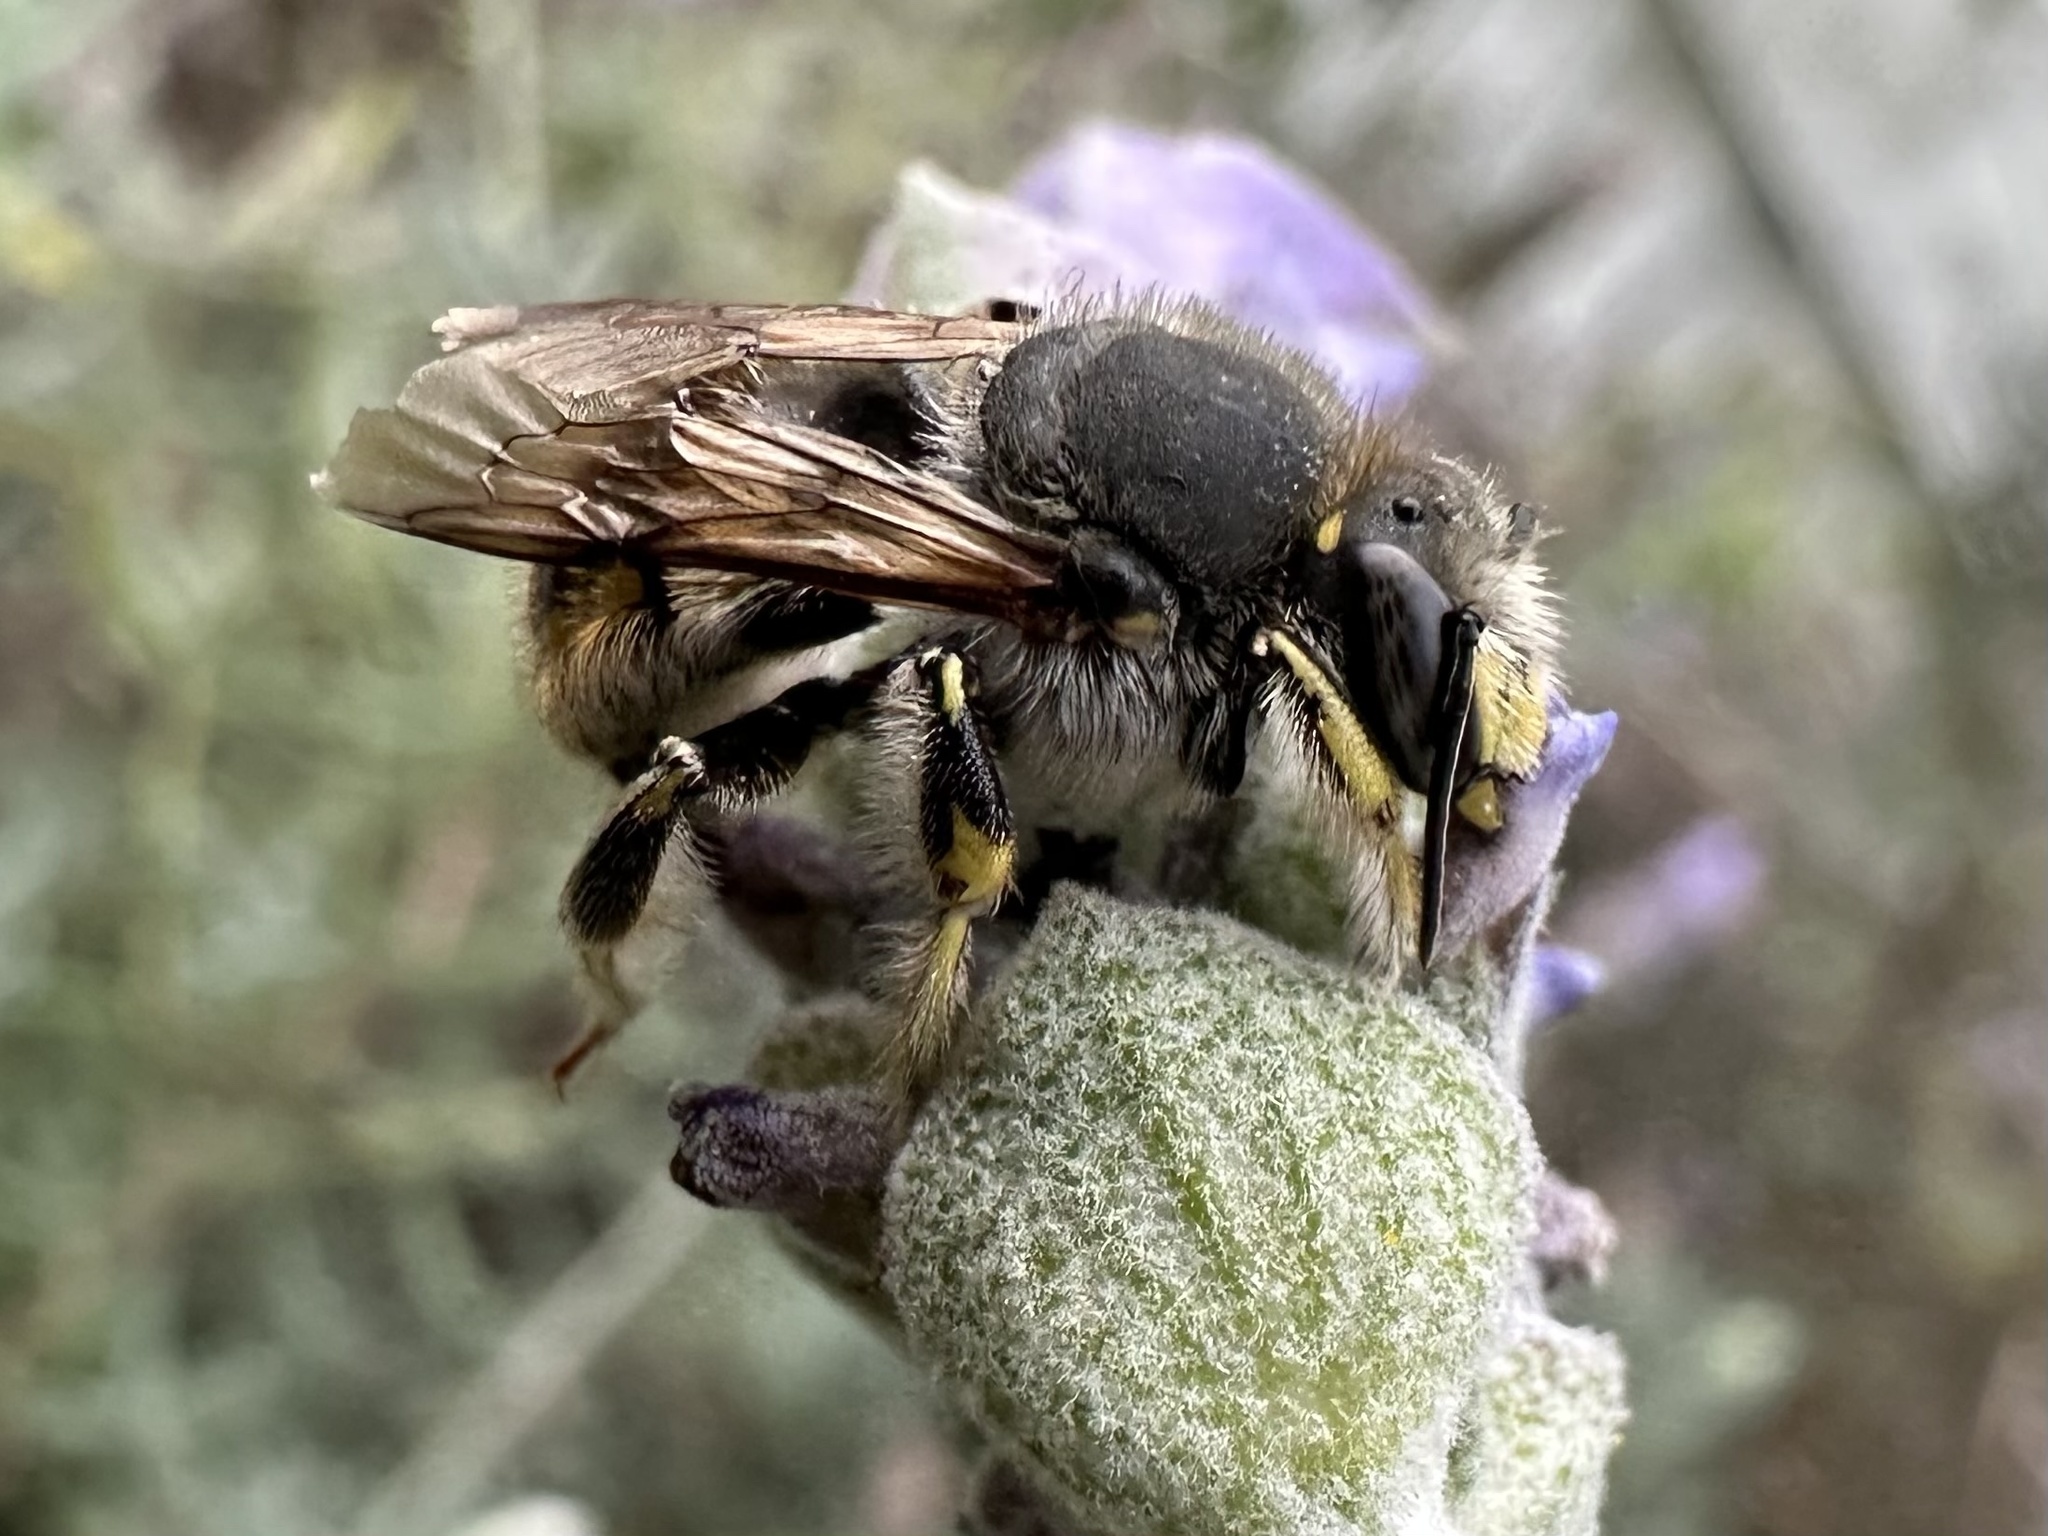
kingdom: Animalia
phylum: Arthropoda
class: Insecta
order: Hymenoptera
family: Megachilidae
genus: Anthidium
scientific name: Anthidium manicatum
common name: Wool carder bee
